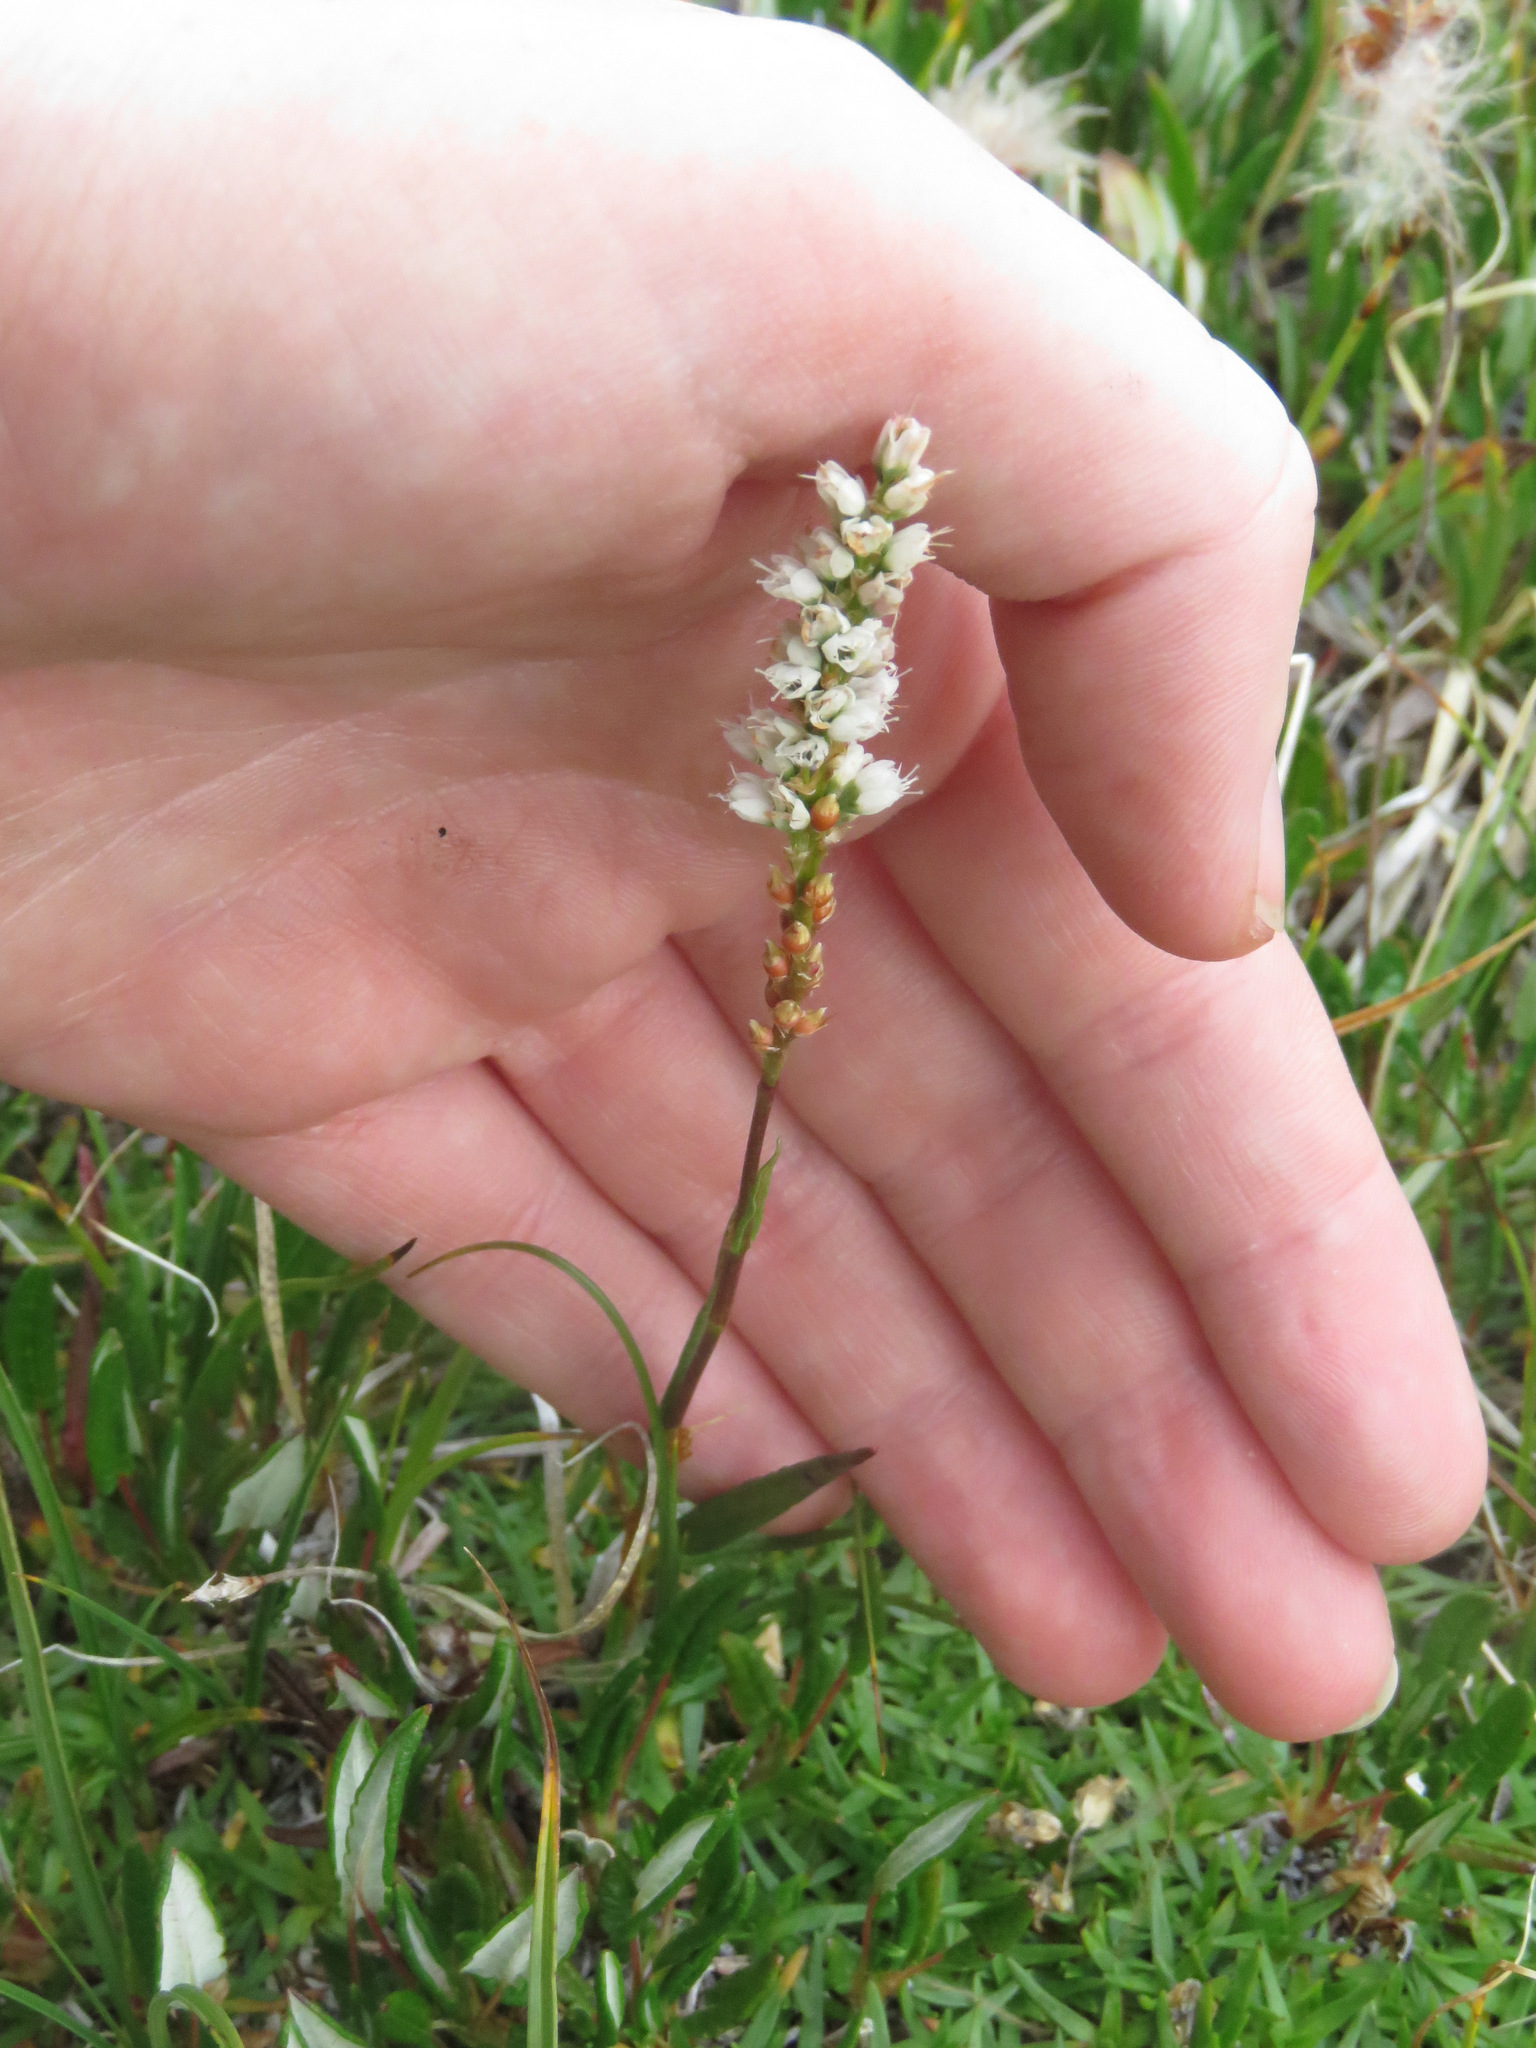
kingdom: Plantae
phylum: Tracheophyta
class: Magnoliopsida
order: Caryophyllales
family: Polygonaceae
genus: Bistorta
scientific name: Bistorta vivipara
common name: Alpine bistort
